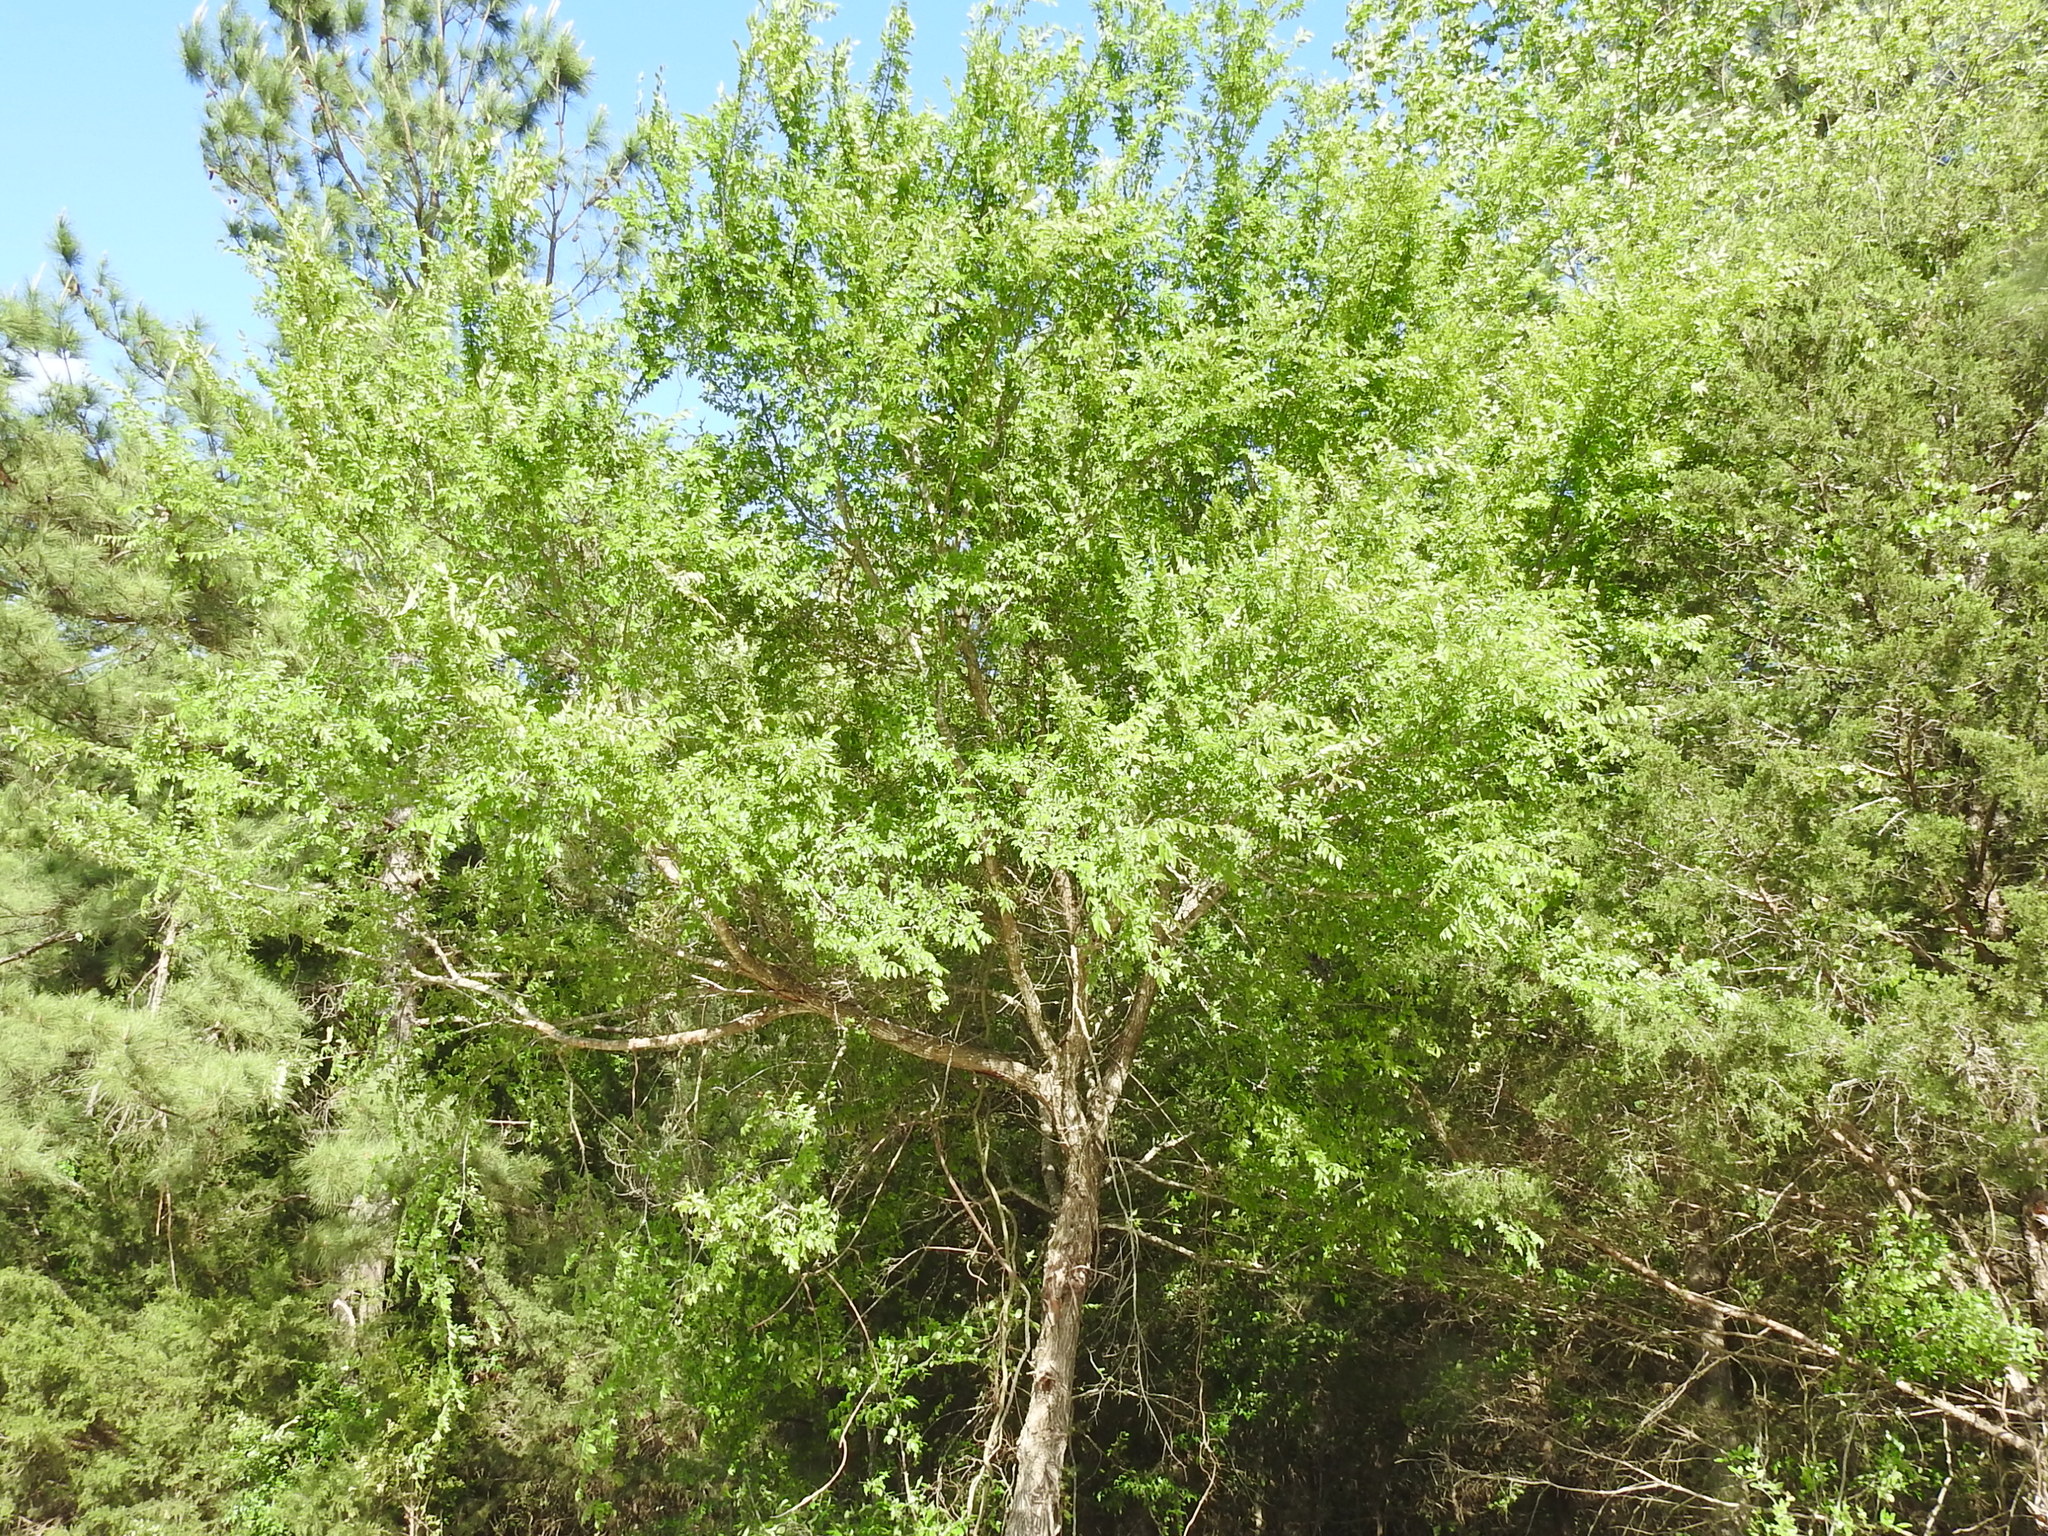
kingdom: Plantae
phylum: Tracheophyta
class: Magnoliopsida
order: Rosales
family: Ulmaceae
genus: Ulmus
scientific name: Ulmus alata
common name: Winged elm
